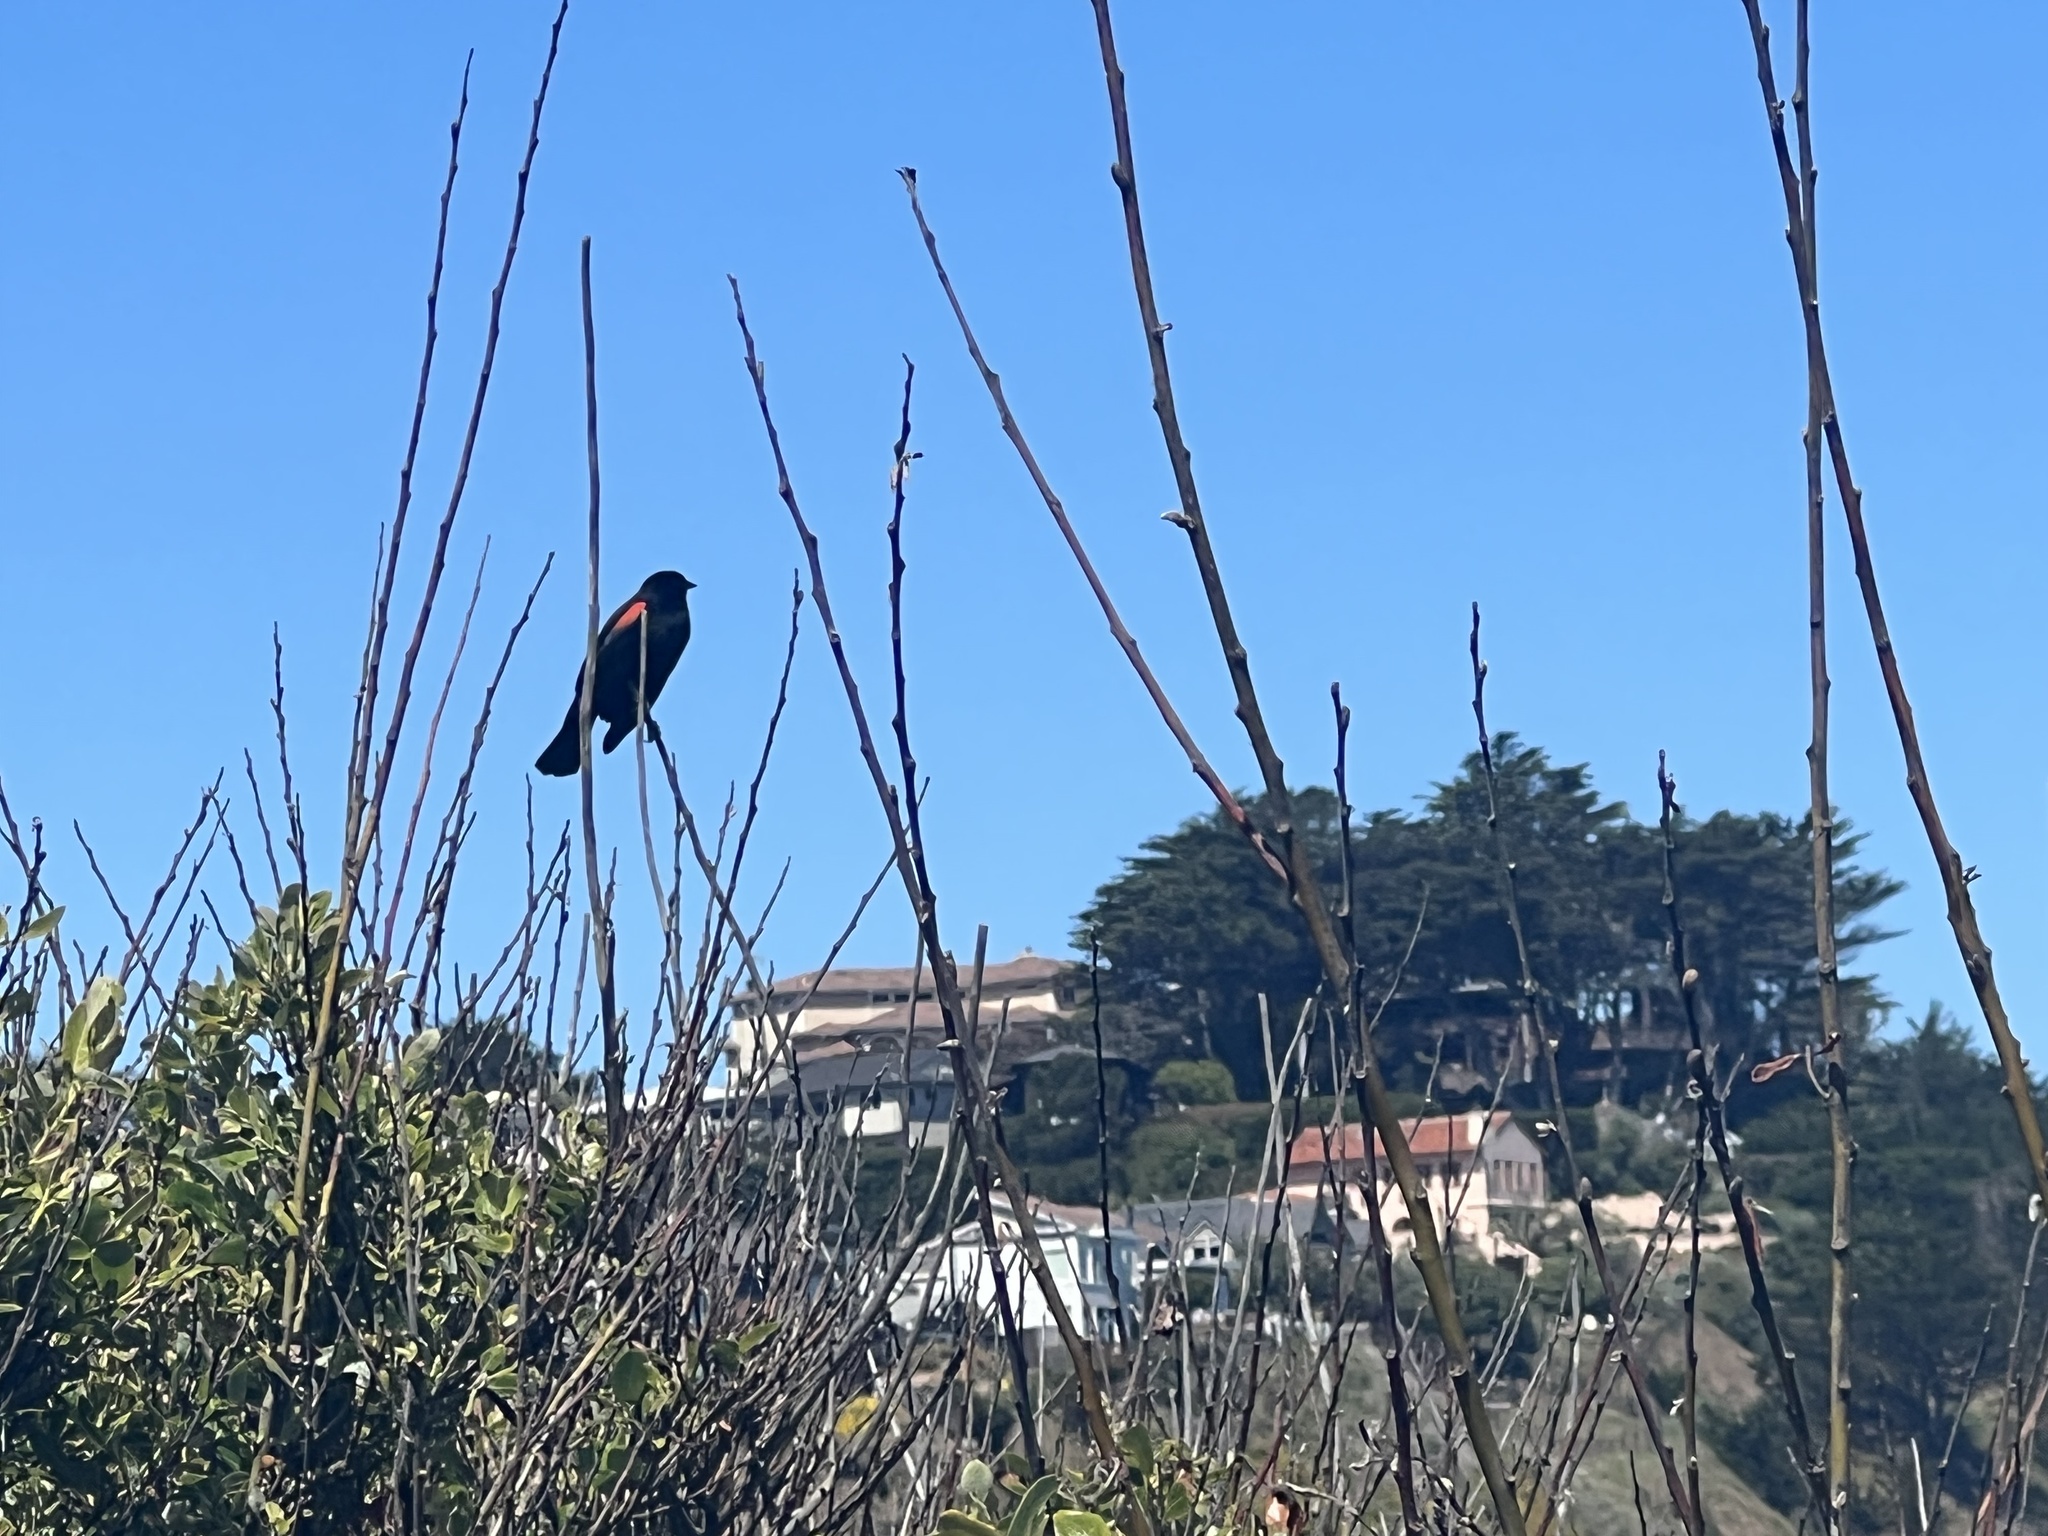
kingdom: Animalia
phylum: Chordata
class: Aves
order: Passeriformes
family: Icteridae
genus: Agelaius
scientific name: Agelaius phoeniceus
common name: Red-winged blackbird
